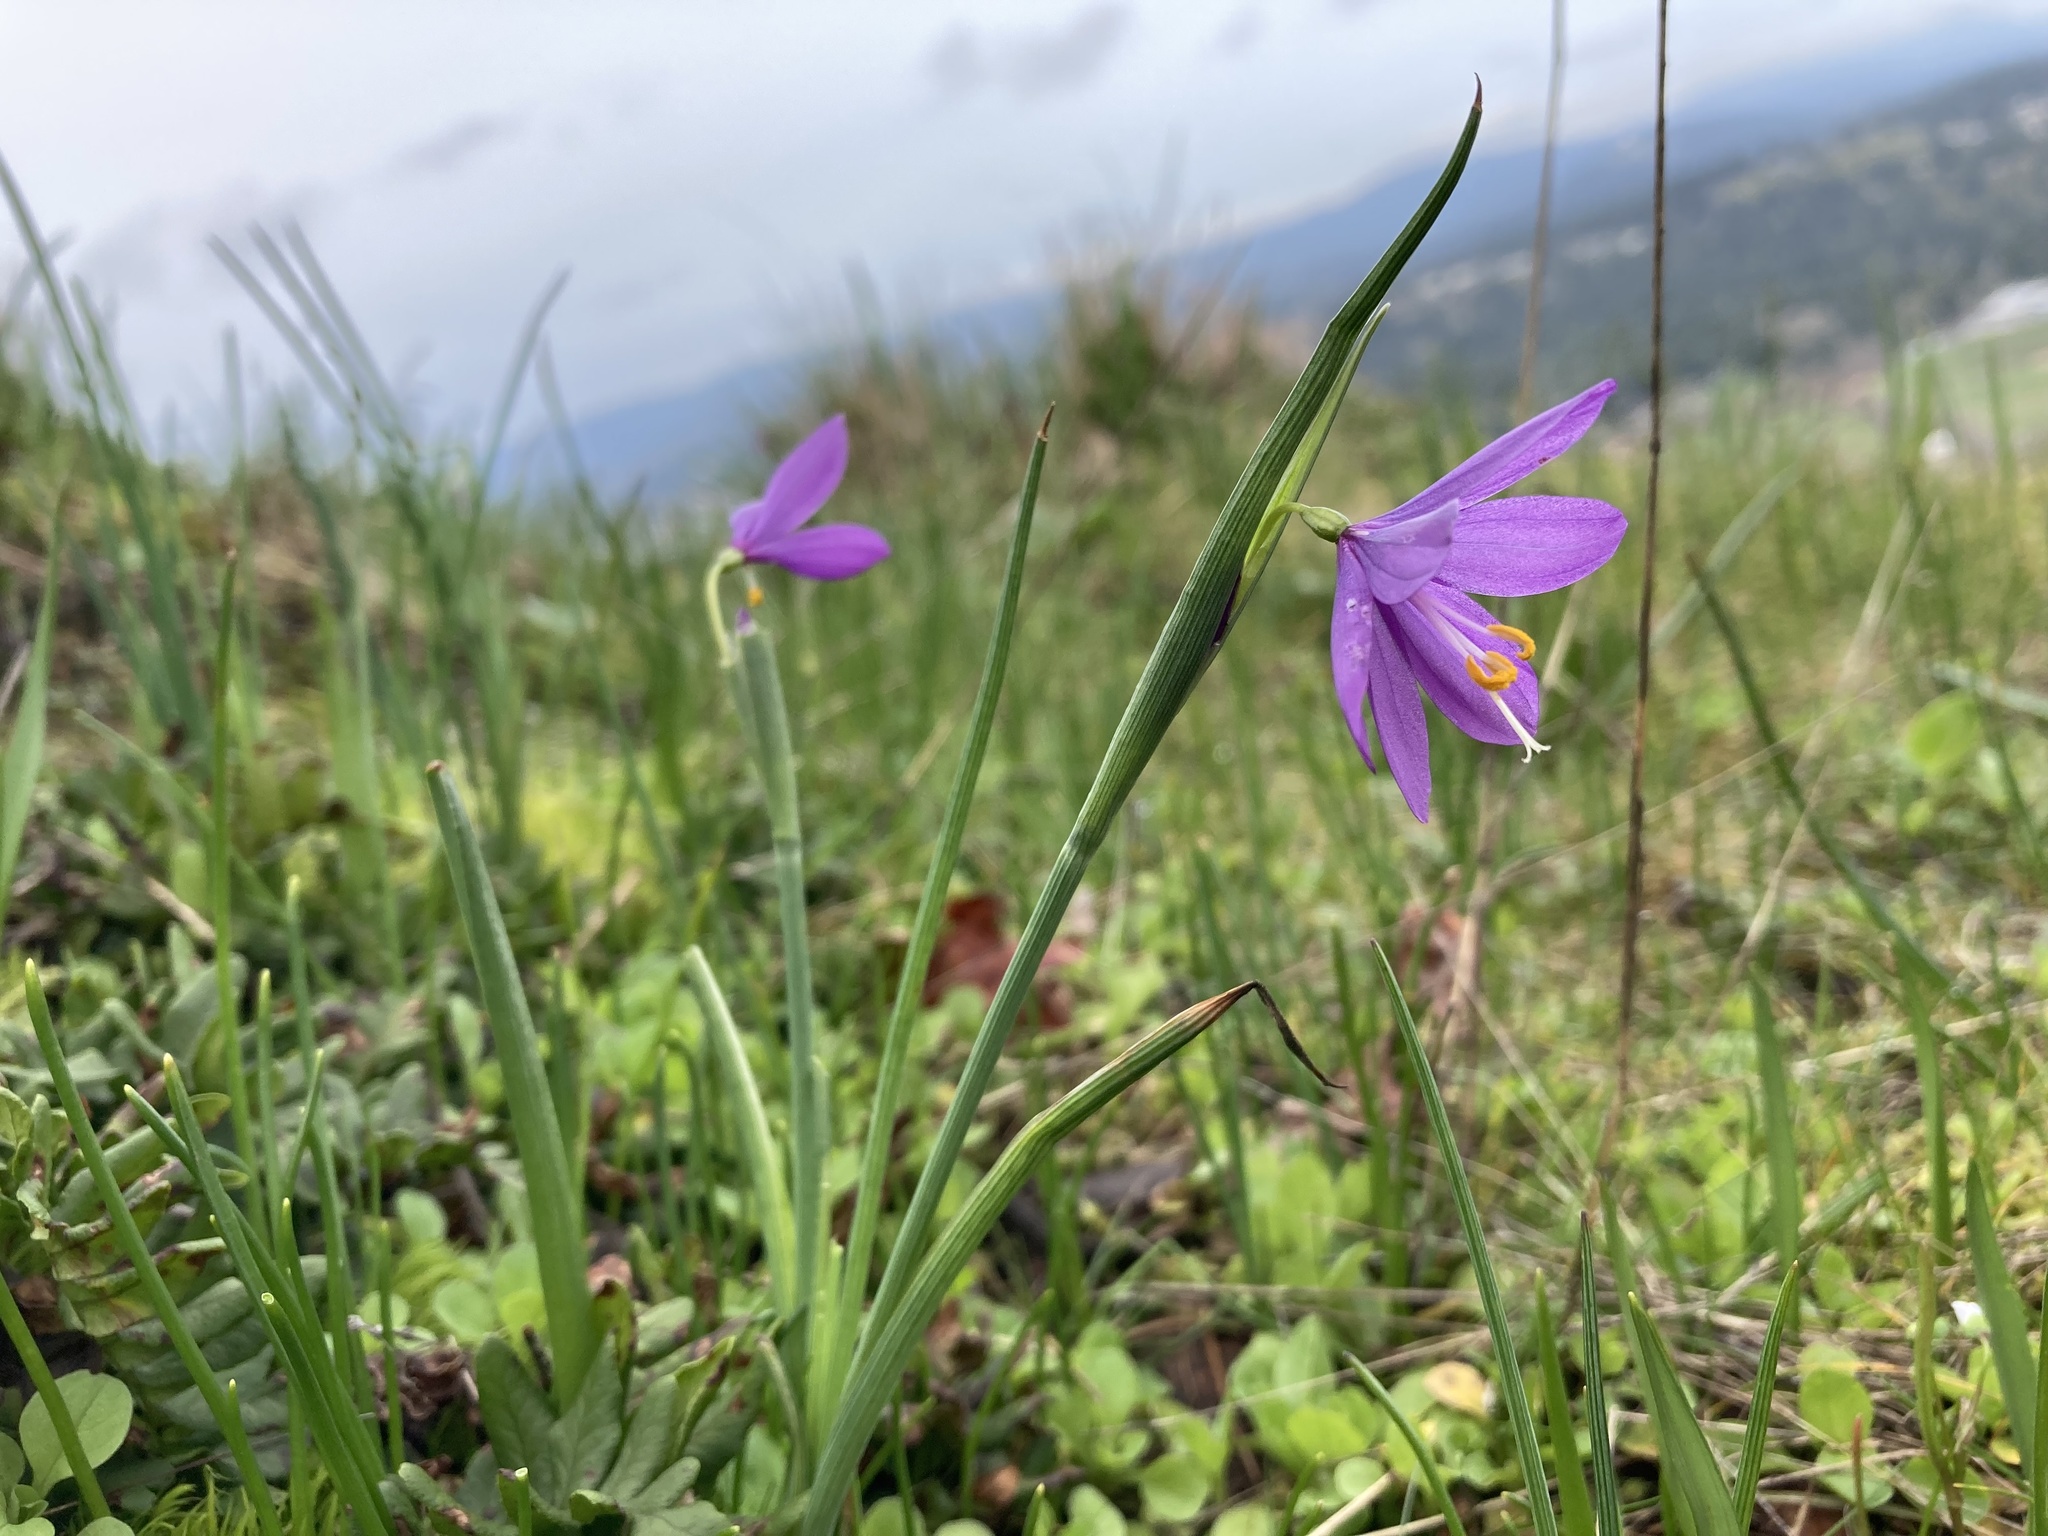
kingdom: Plantae
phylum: Tracheophyta
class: Liliopsida
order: Asparagales
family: Iridaceae
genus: Olsynium
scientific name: Olsynium douglasii
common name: Douglas' grasswidow
